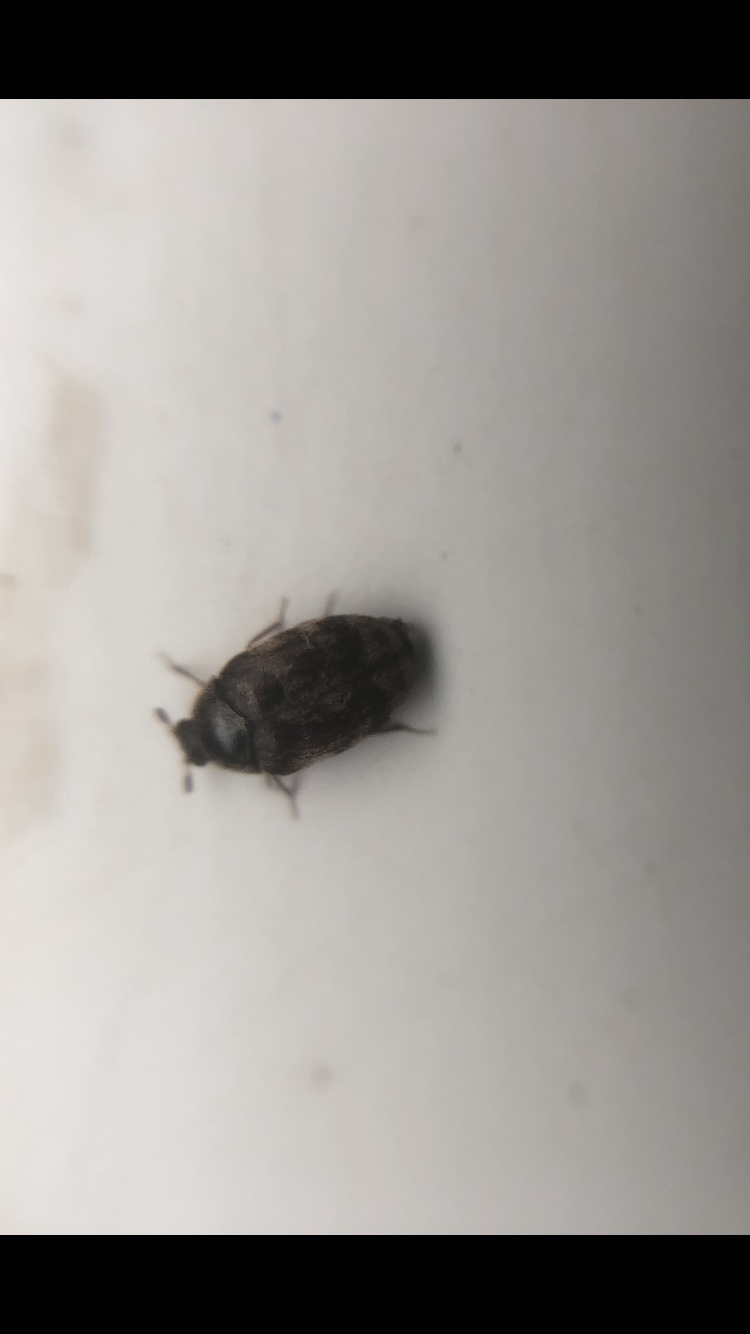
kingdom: Animalia
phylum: Arthropoda
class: Insecta
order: Coleoptera
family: Dermestidae
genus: Anthrenocerus
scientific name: Anthrenocerus australis
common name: Australian carpet beetle
